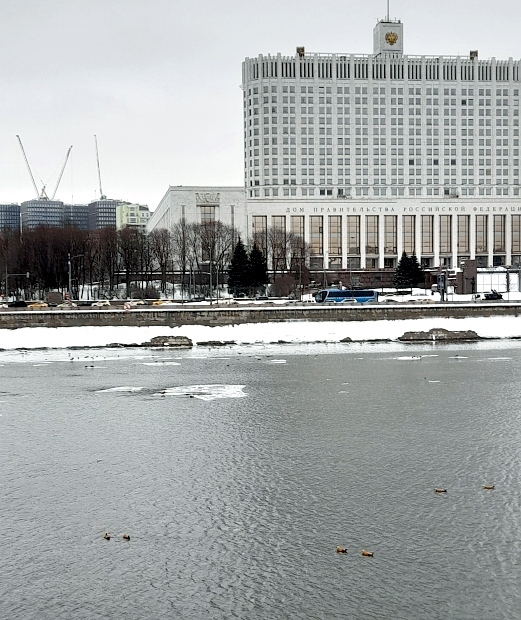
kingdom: Animalia
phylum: Chordata
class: Aves
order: Anseriformes
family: Anatidae
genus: Tadorna
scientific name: Tadorna ferruginea
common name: Ruddy shelduck
